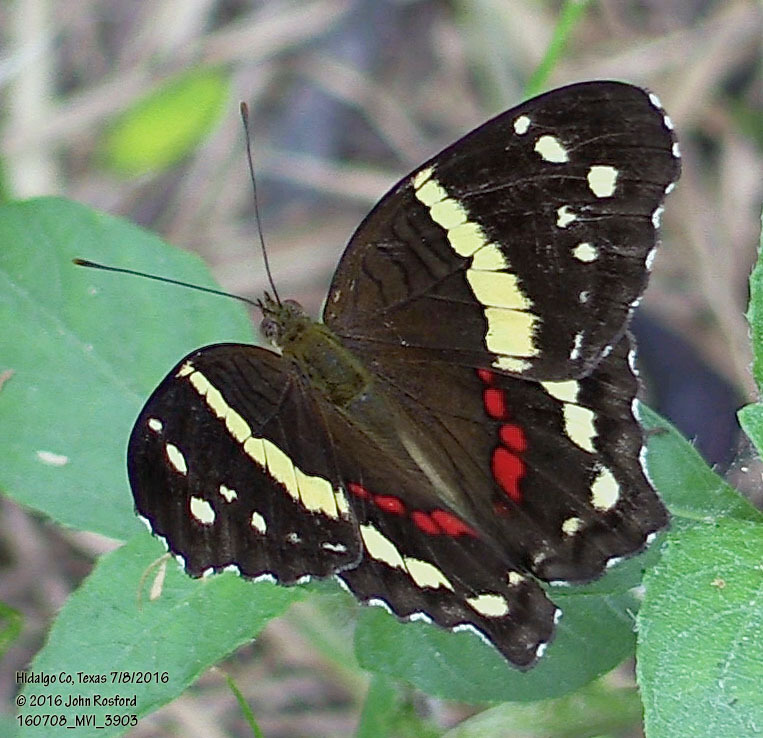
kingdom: Animalia
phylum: Arthropoda
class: Insecta
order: Lepidoptera
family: Nymphalidae
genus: Anartia
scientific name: Anartia fatima
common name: Banded peacock
